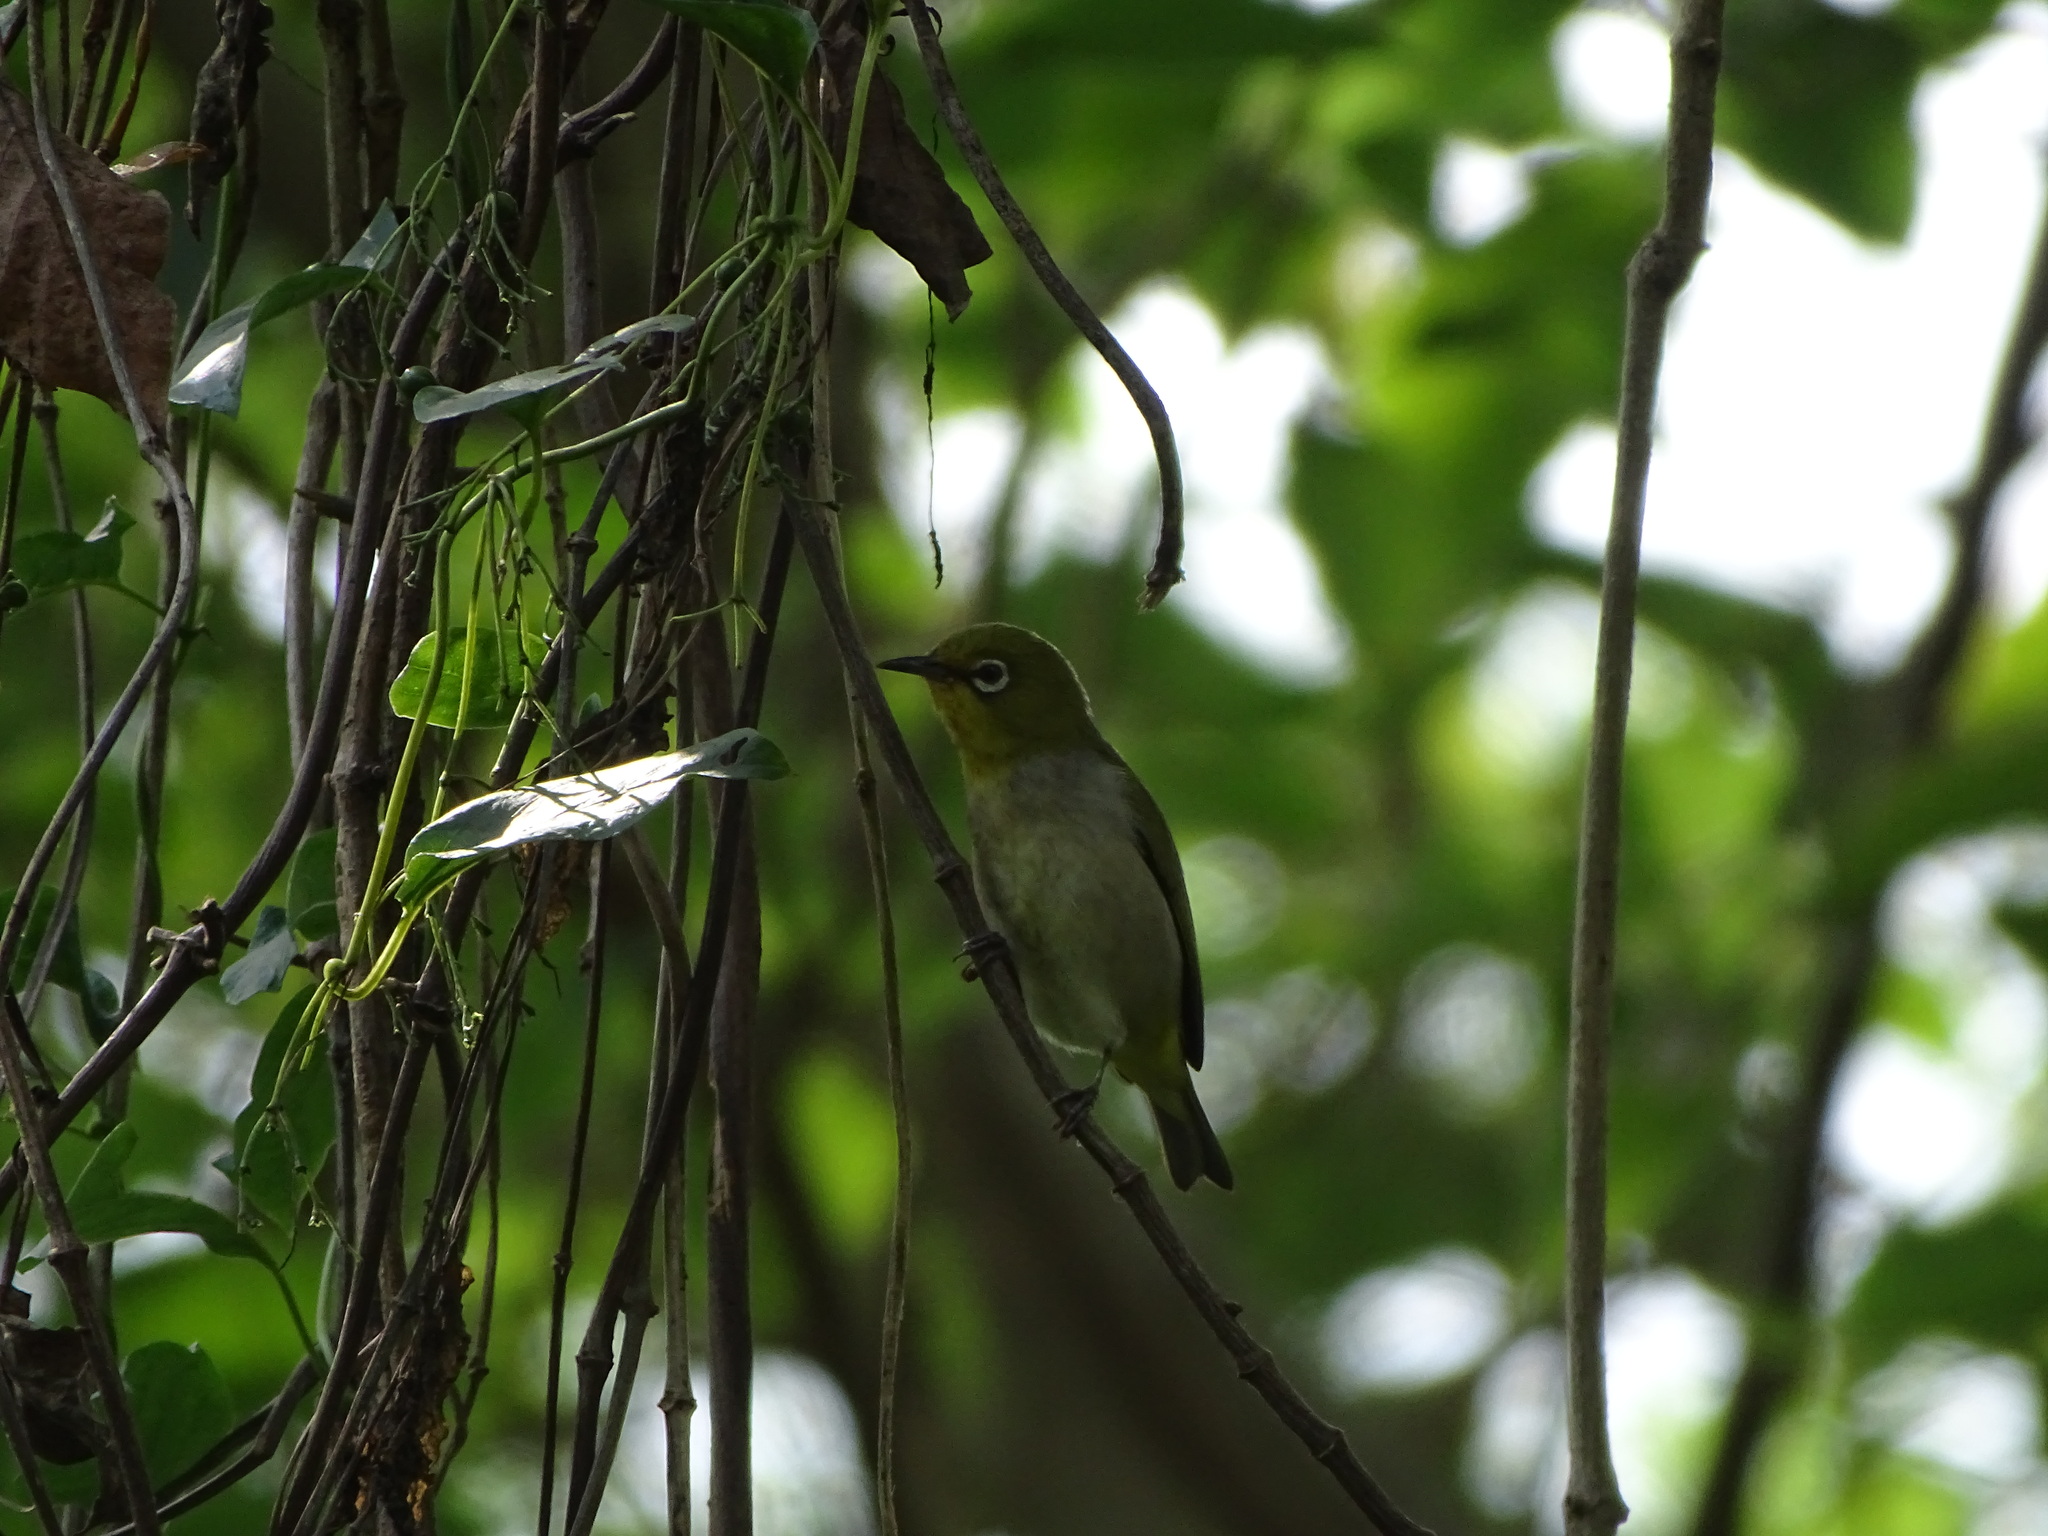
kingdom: Animalia
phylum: Chordata
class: Aves
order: Passeriformes
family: Zosteropidae
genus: Zosterops
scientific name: Zosterops simplex
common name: Swinhoe's white-eye
